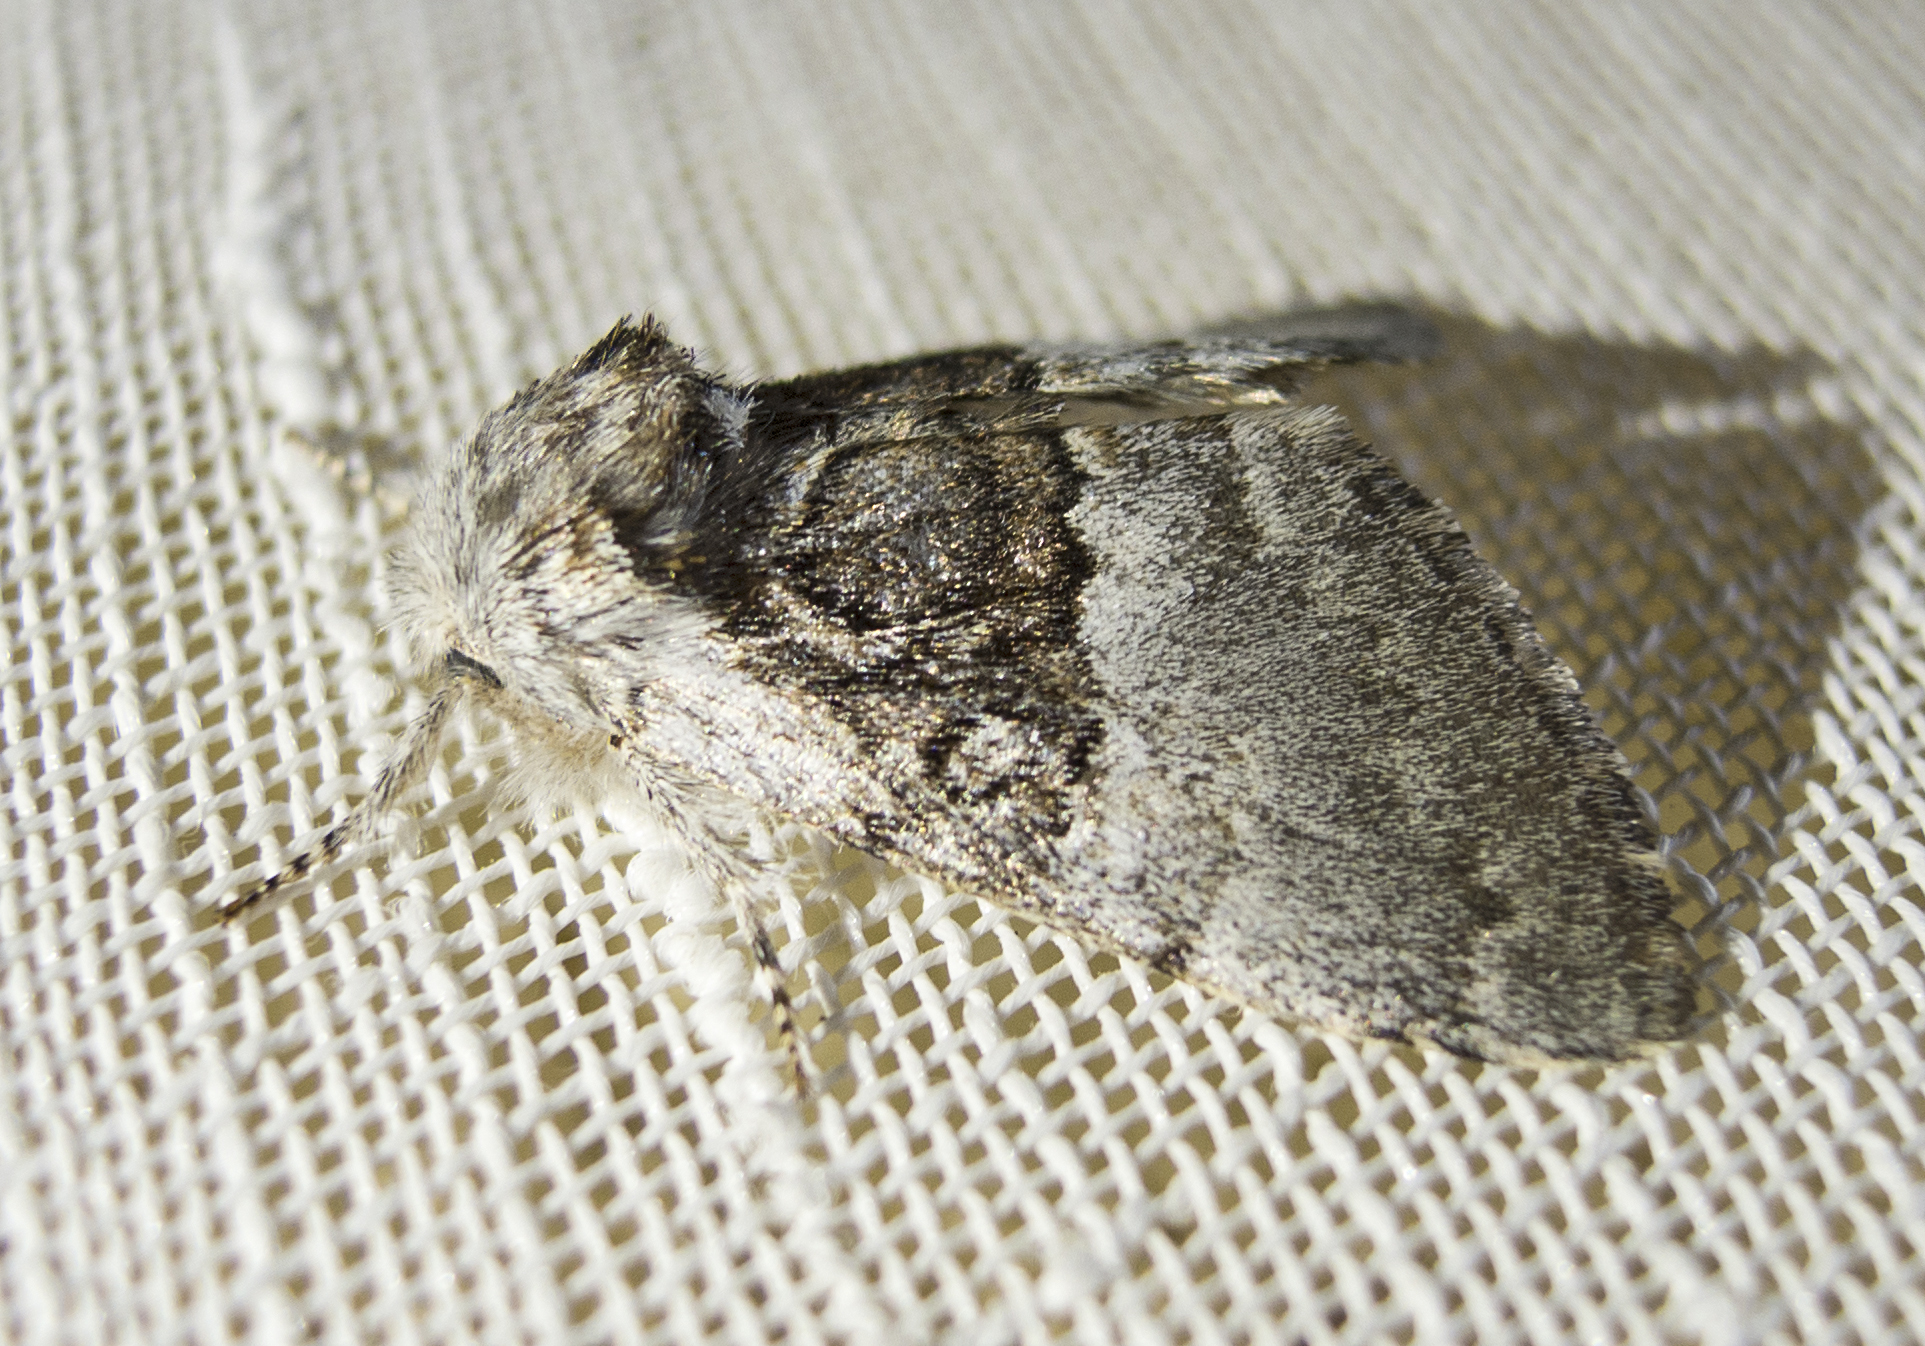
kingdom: Animalia
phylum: Arthropoda
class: Insecta
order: Lepidoptera
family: Noctuidae
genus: Colocasia
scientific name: Colocasia coryli
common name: Nut-tree tussock
